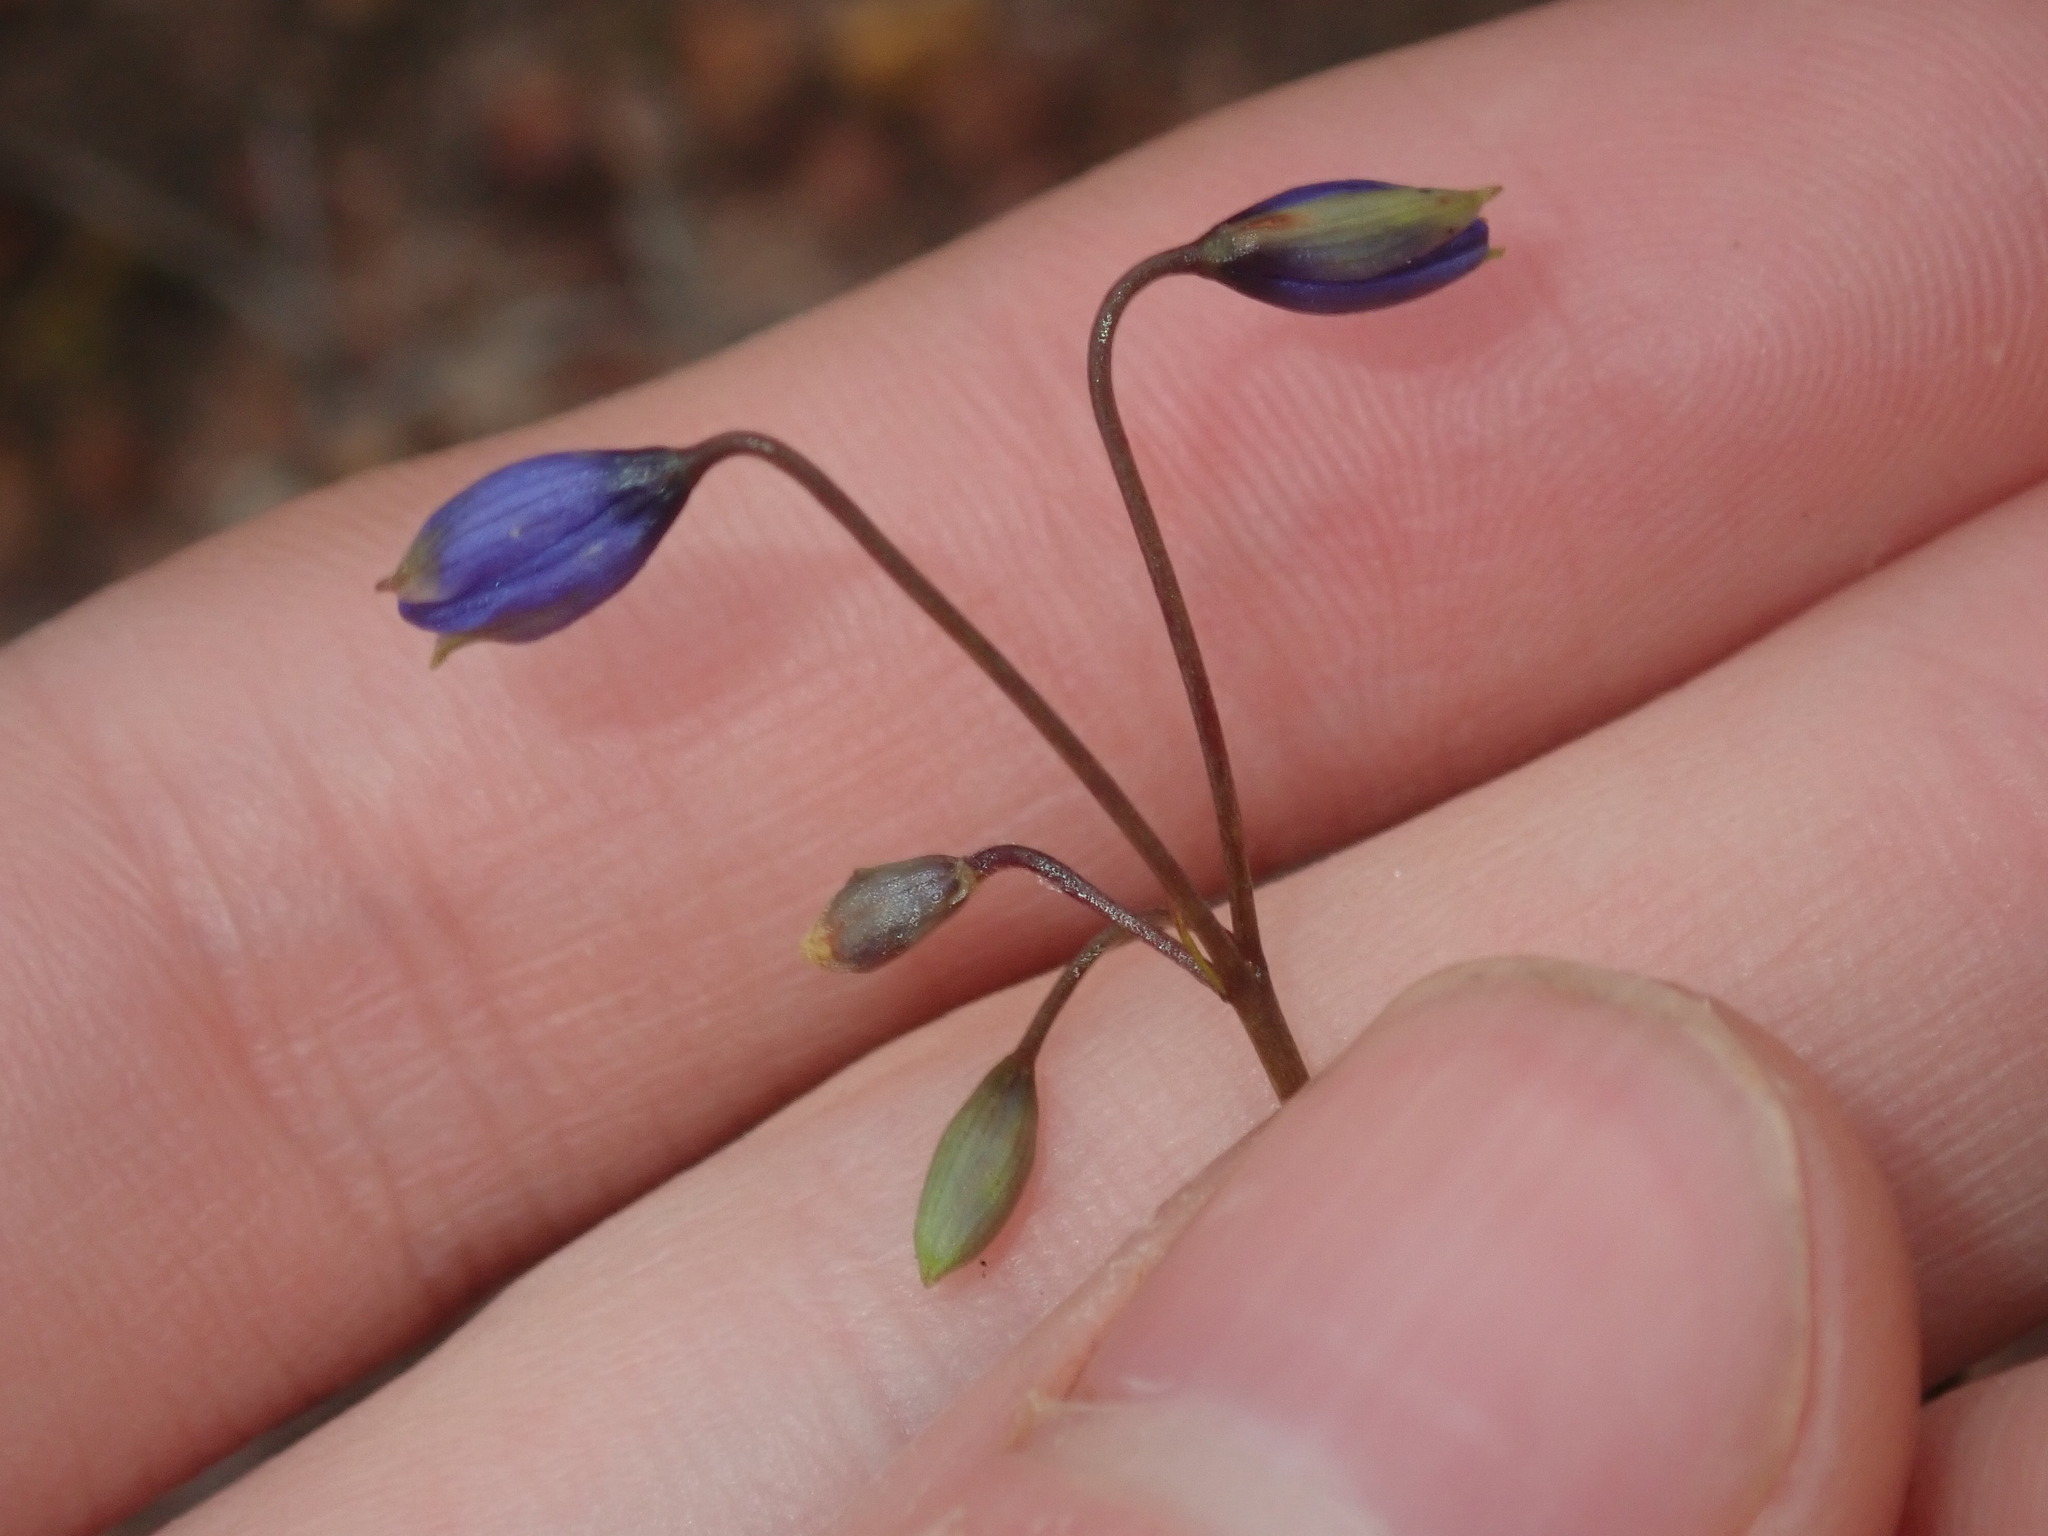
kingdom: Plantae
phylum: Tracheophyta
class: Liliopsida
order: Asparagales
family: Asphodelaceae
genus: Stypandra
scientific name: Stypandra glauca
